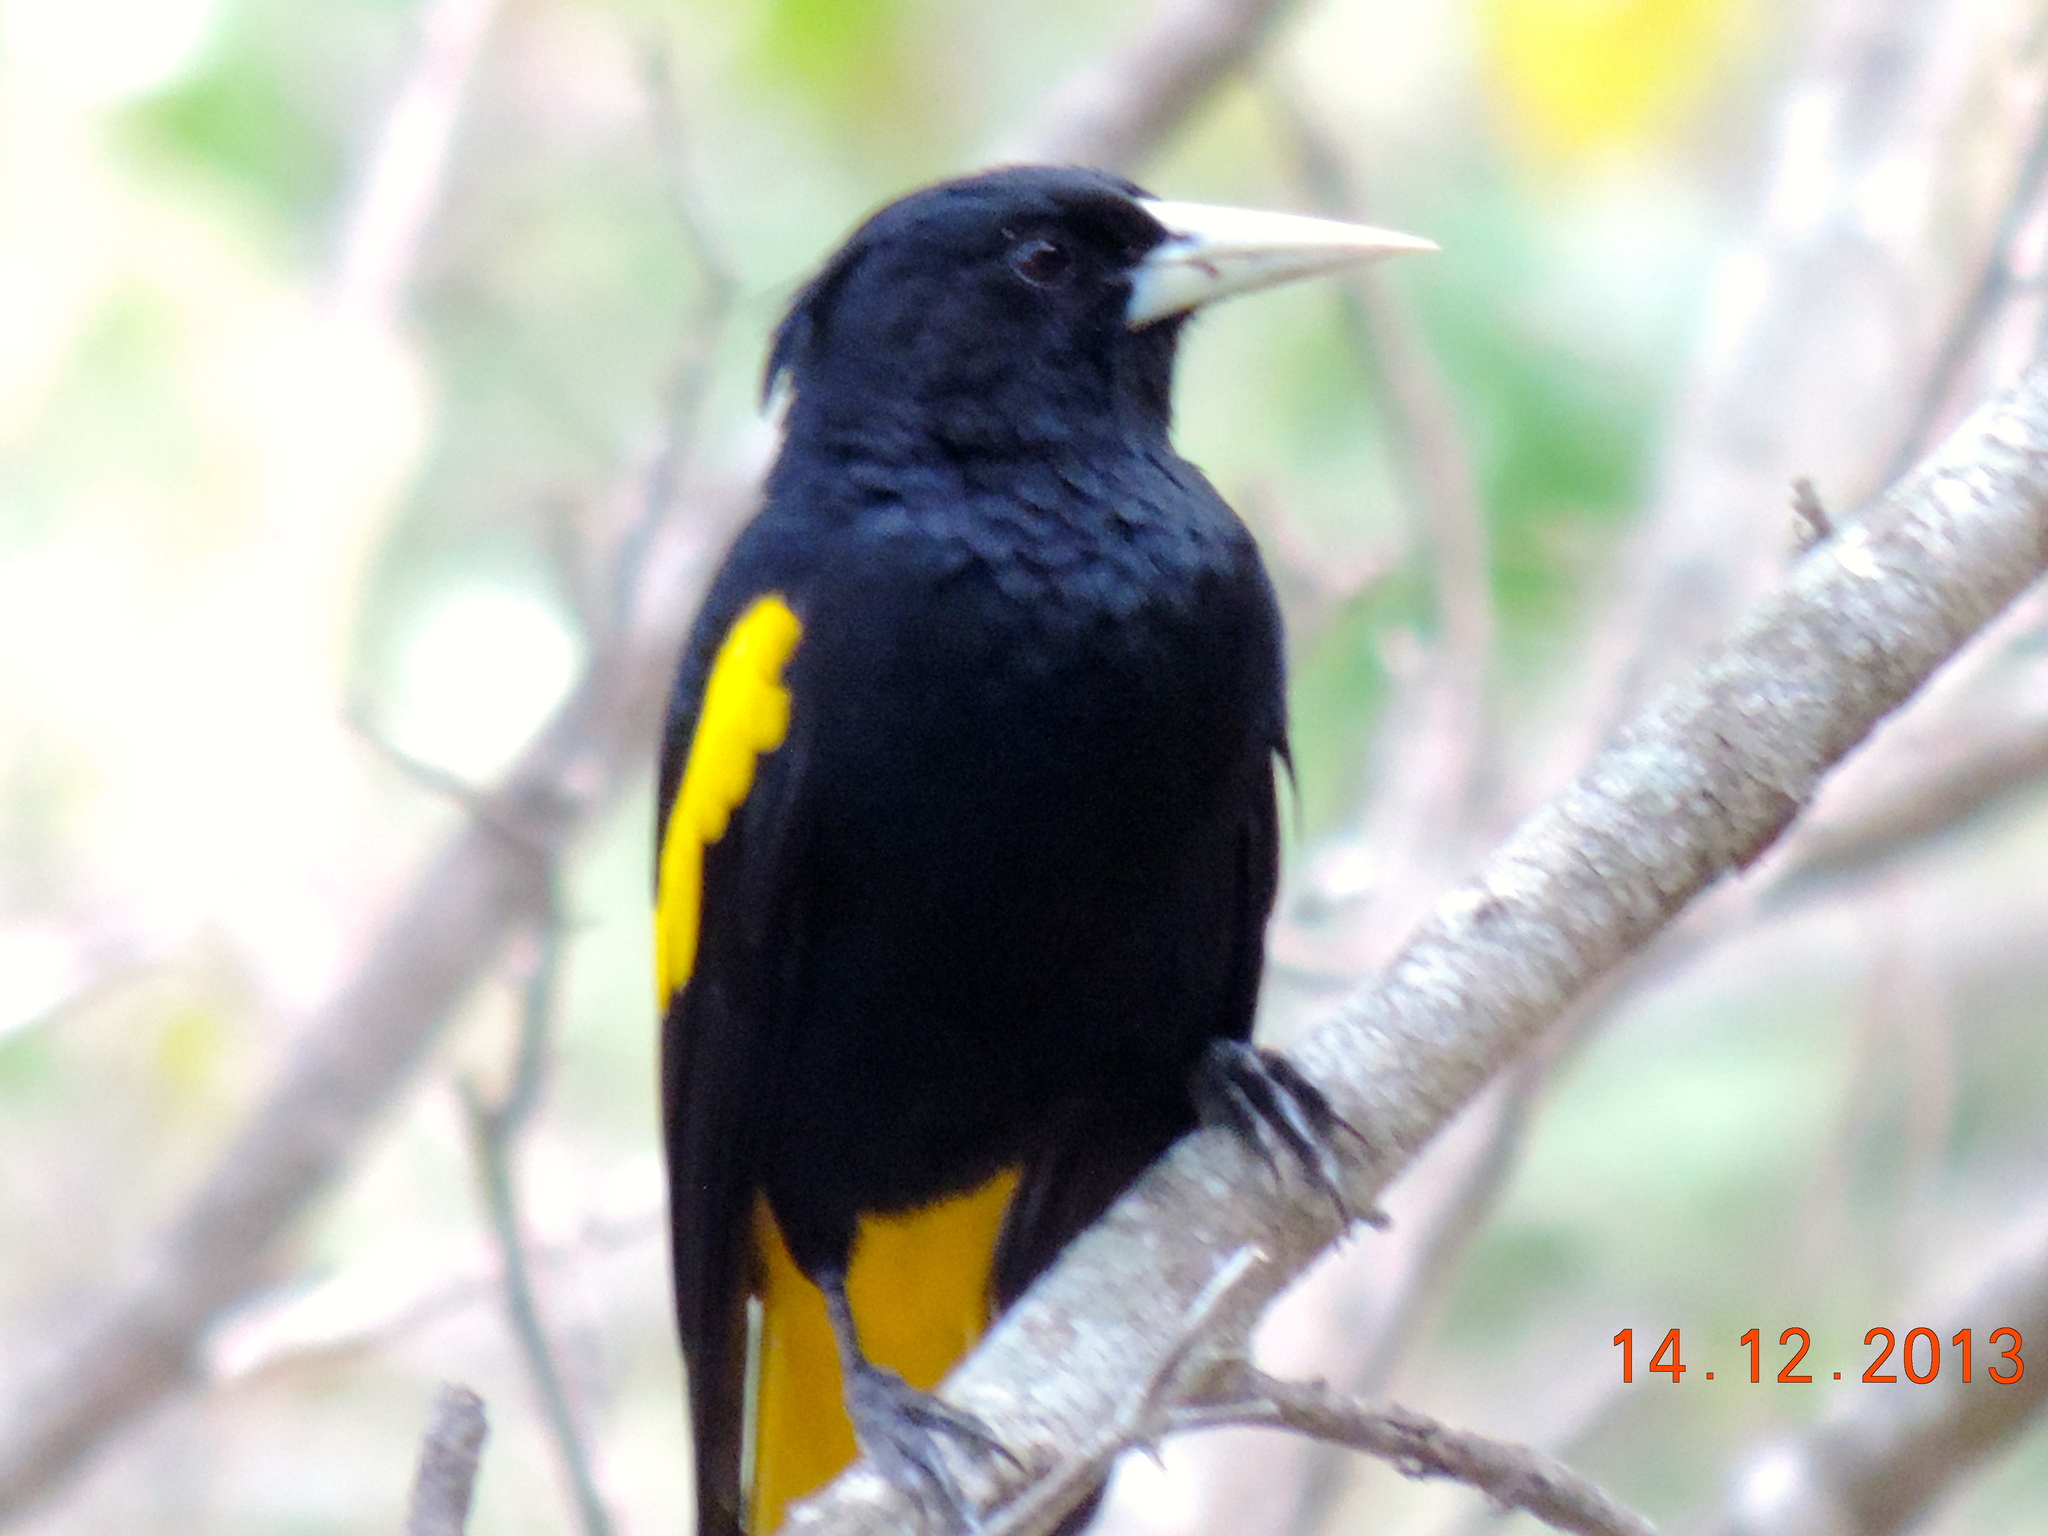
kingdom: Animalia
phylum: Chordata
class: Aves
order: Passeriformes
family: Icteridae
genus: Cacicus
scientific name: Cacicus melanicterus
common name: Yellow-winged cacique
